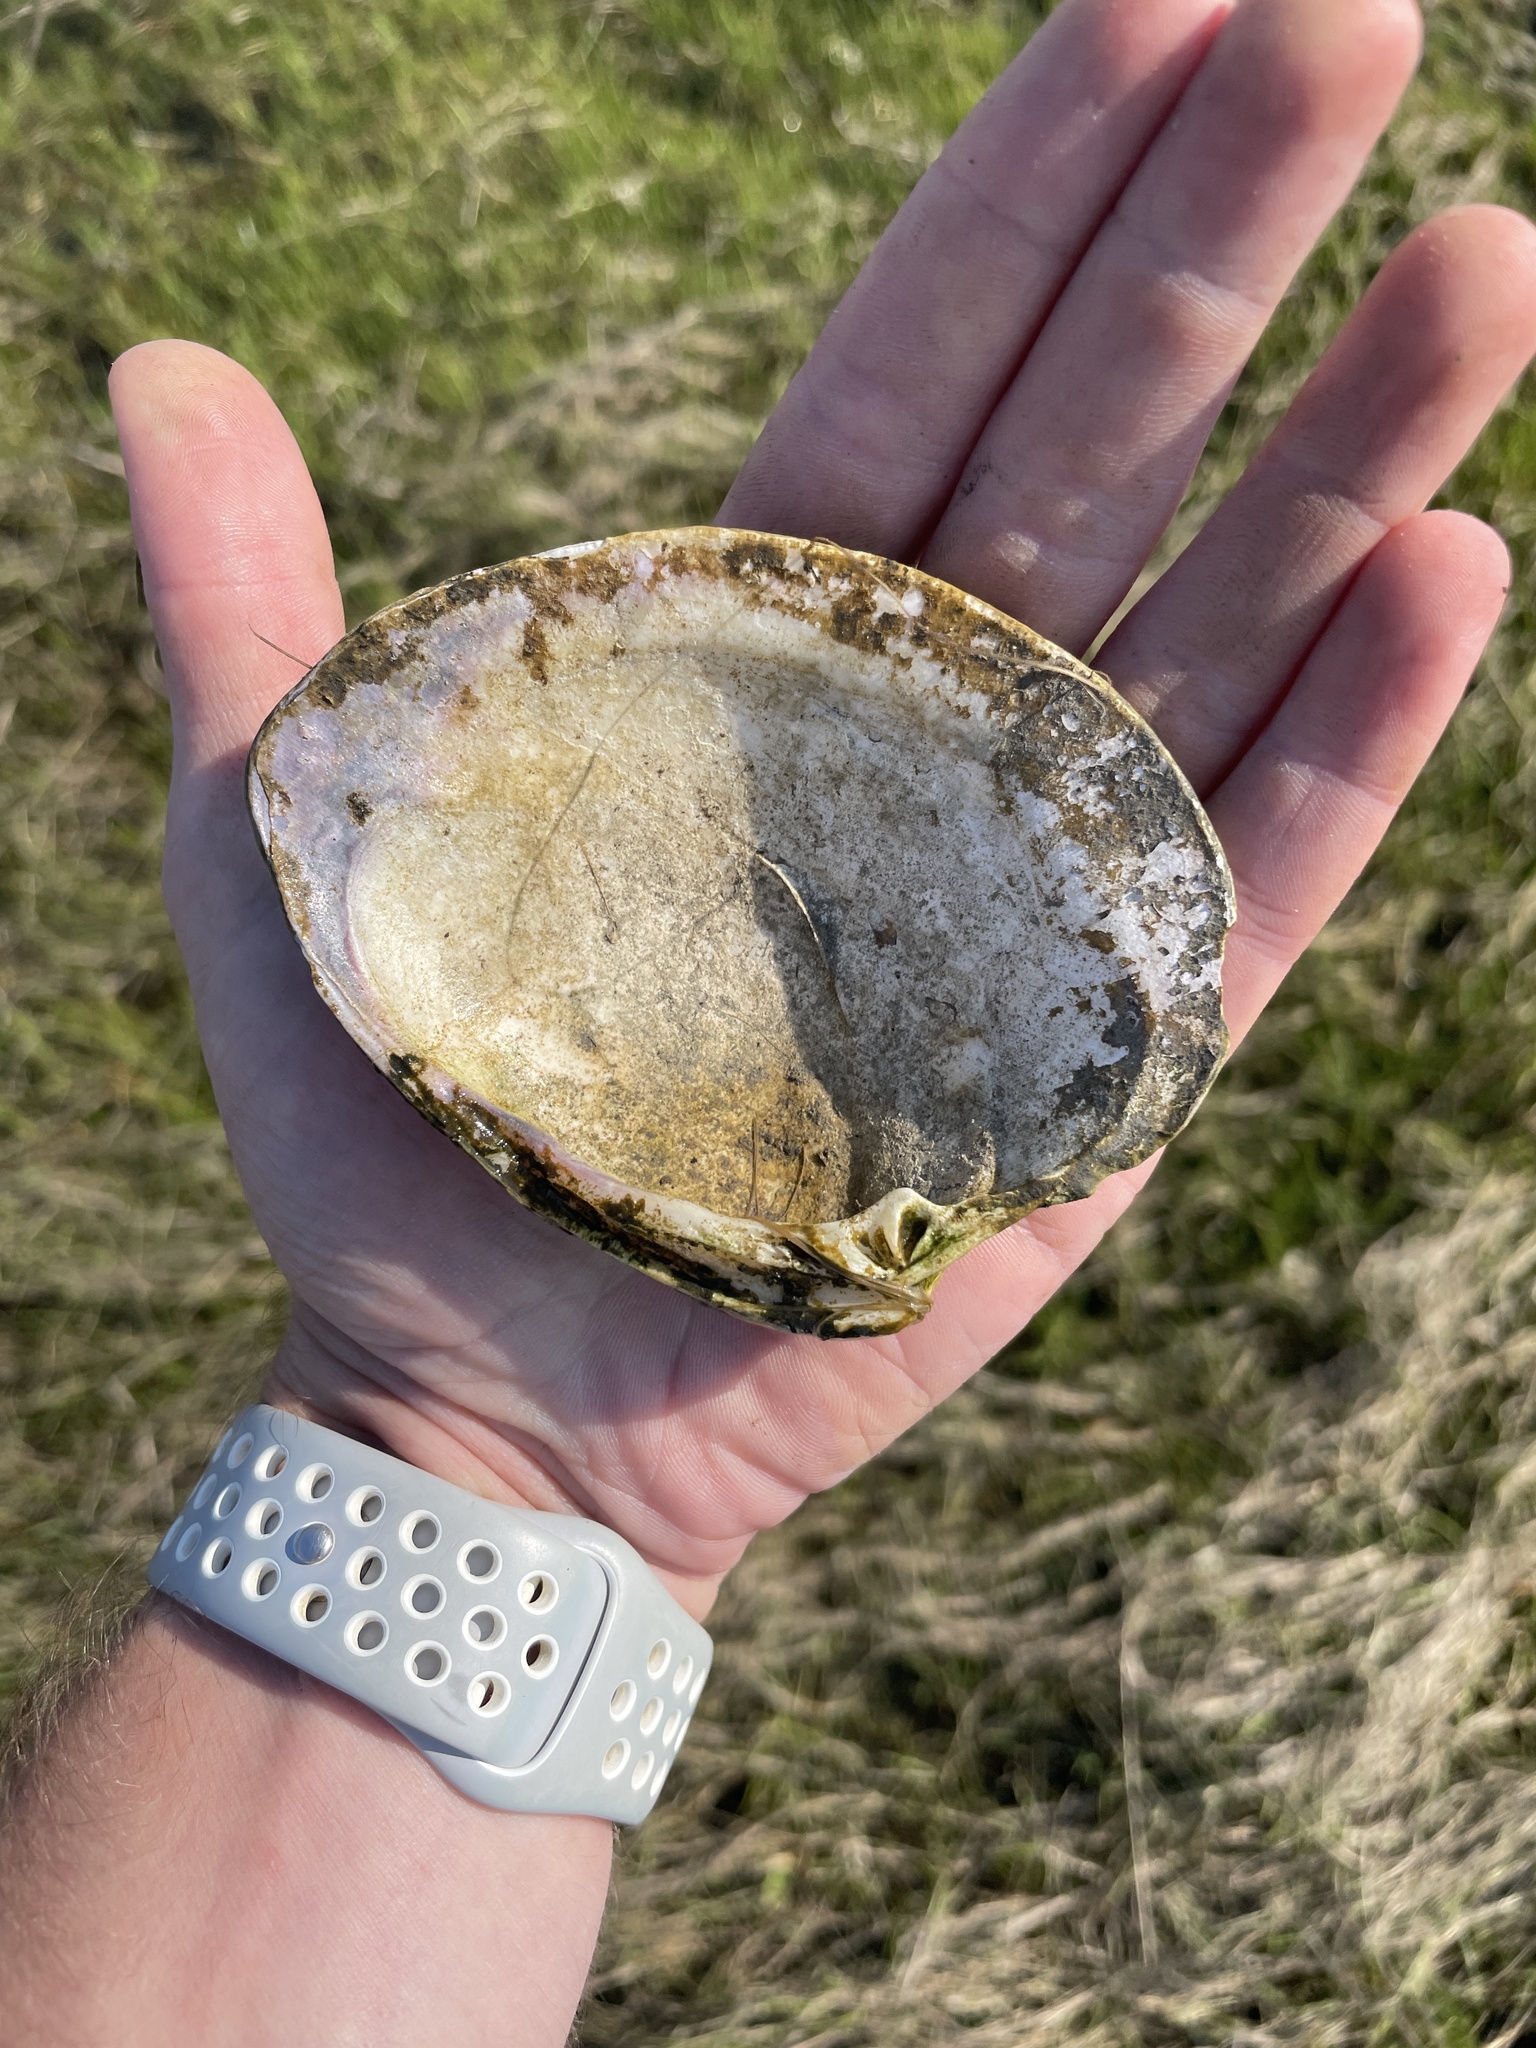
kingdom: Animalia
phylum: Mollusca
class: Bivalvia
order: Venerida
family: Veneridae
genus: Mercenaria
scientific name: Mercenaria mercenaria
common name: American hard-shelled clam
